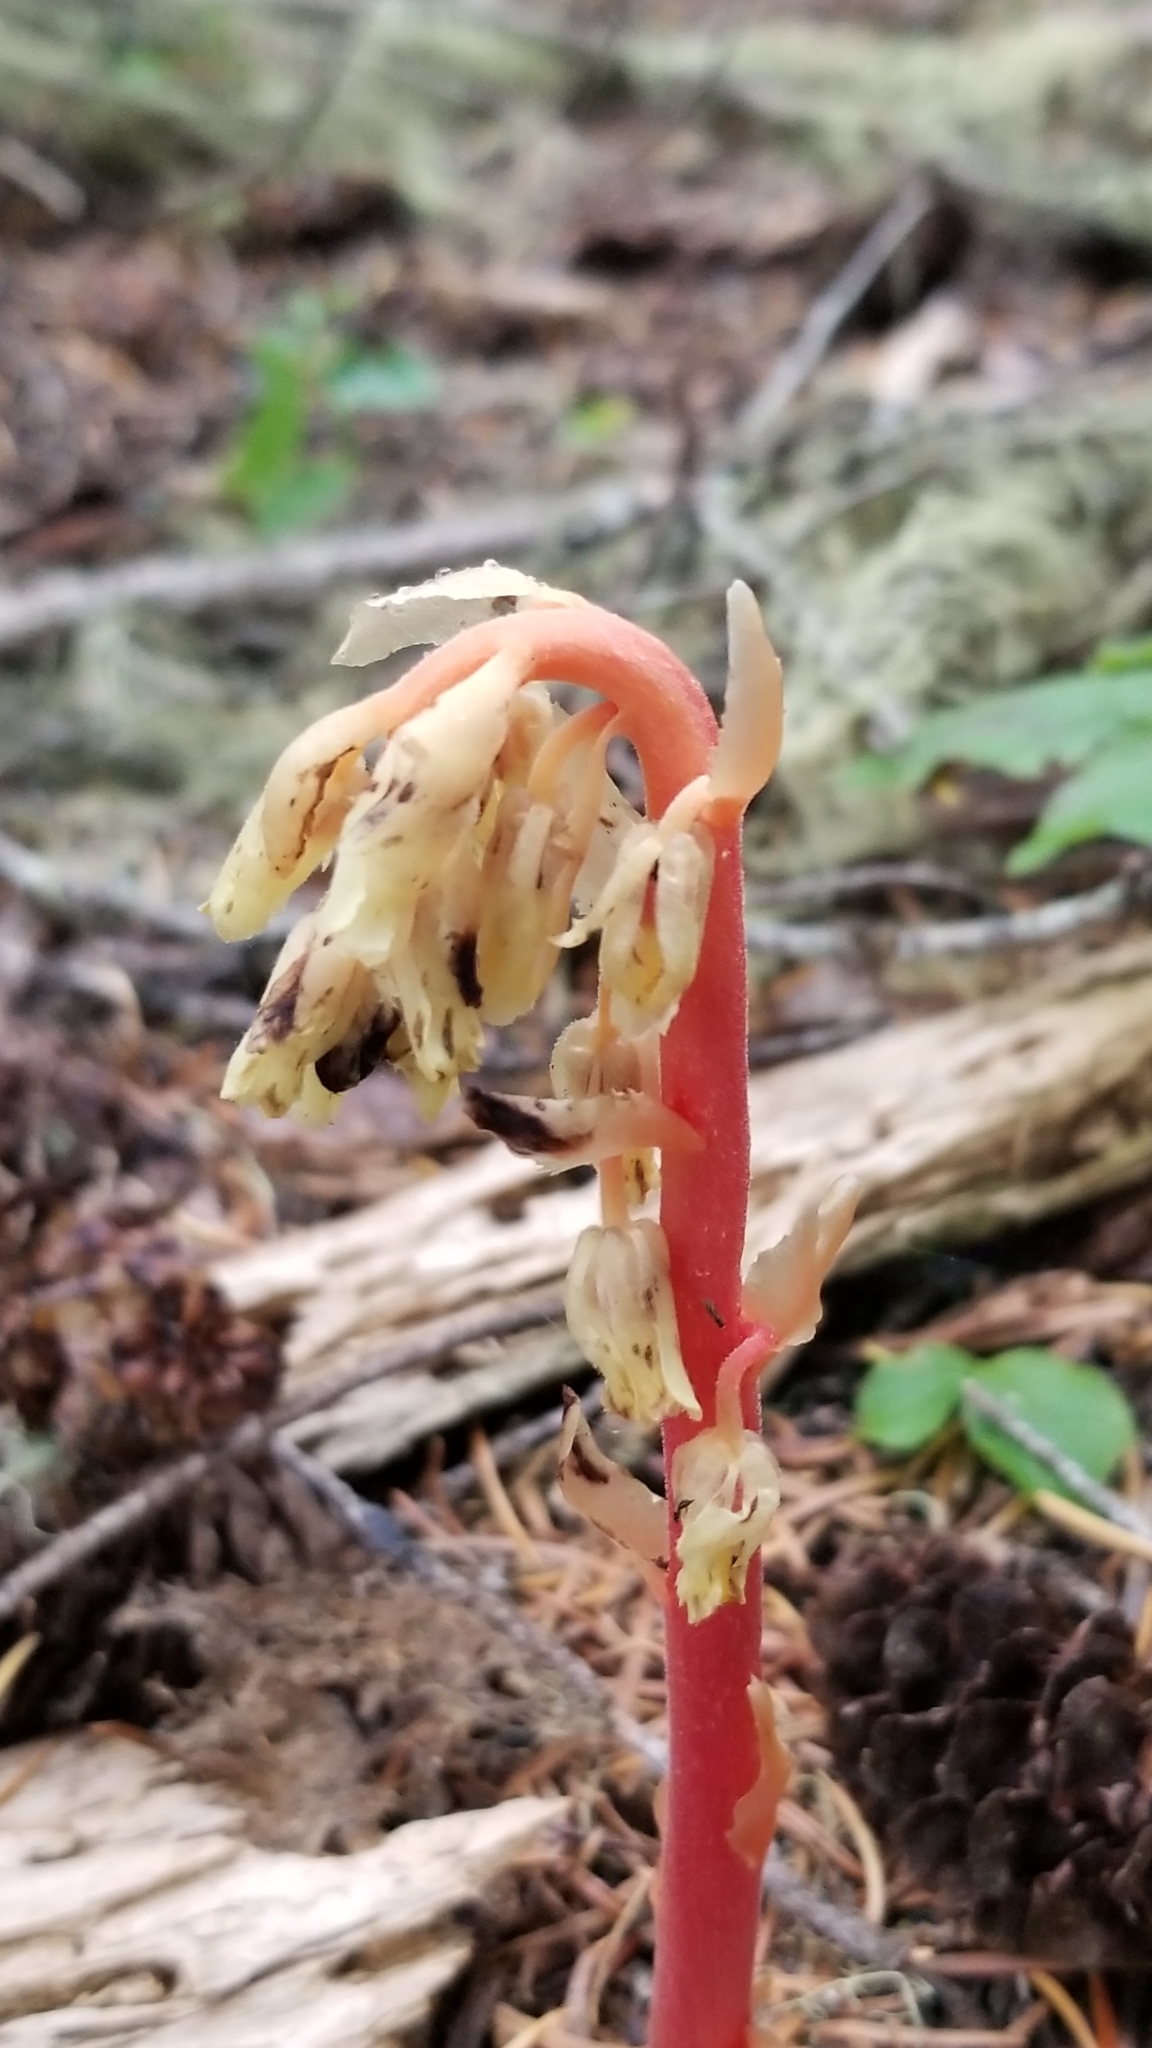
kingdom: Plantae
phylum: Tracheophyta
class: Magnoliopsida
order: Ericales
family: Ericaceae
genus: Hypopitys
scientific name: Hypopitys monotropa
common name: Yellow bird's-nest
